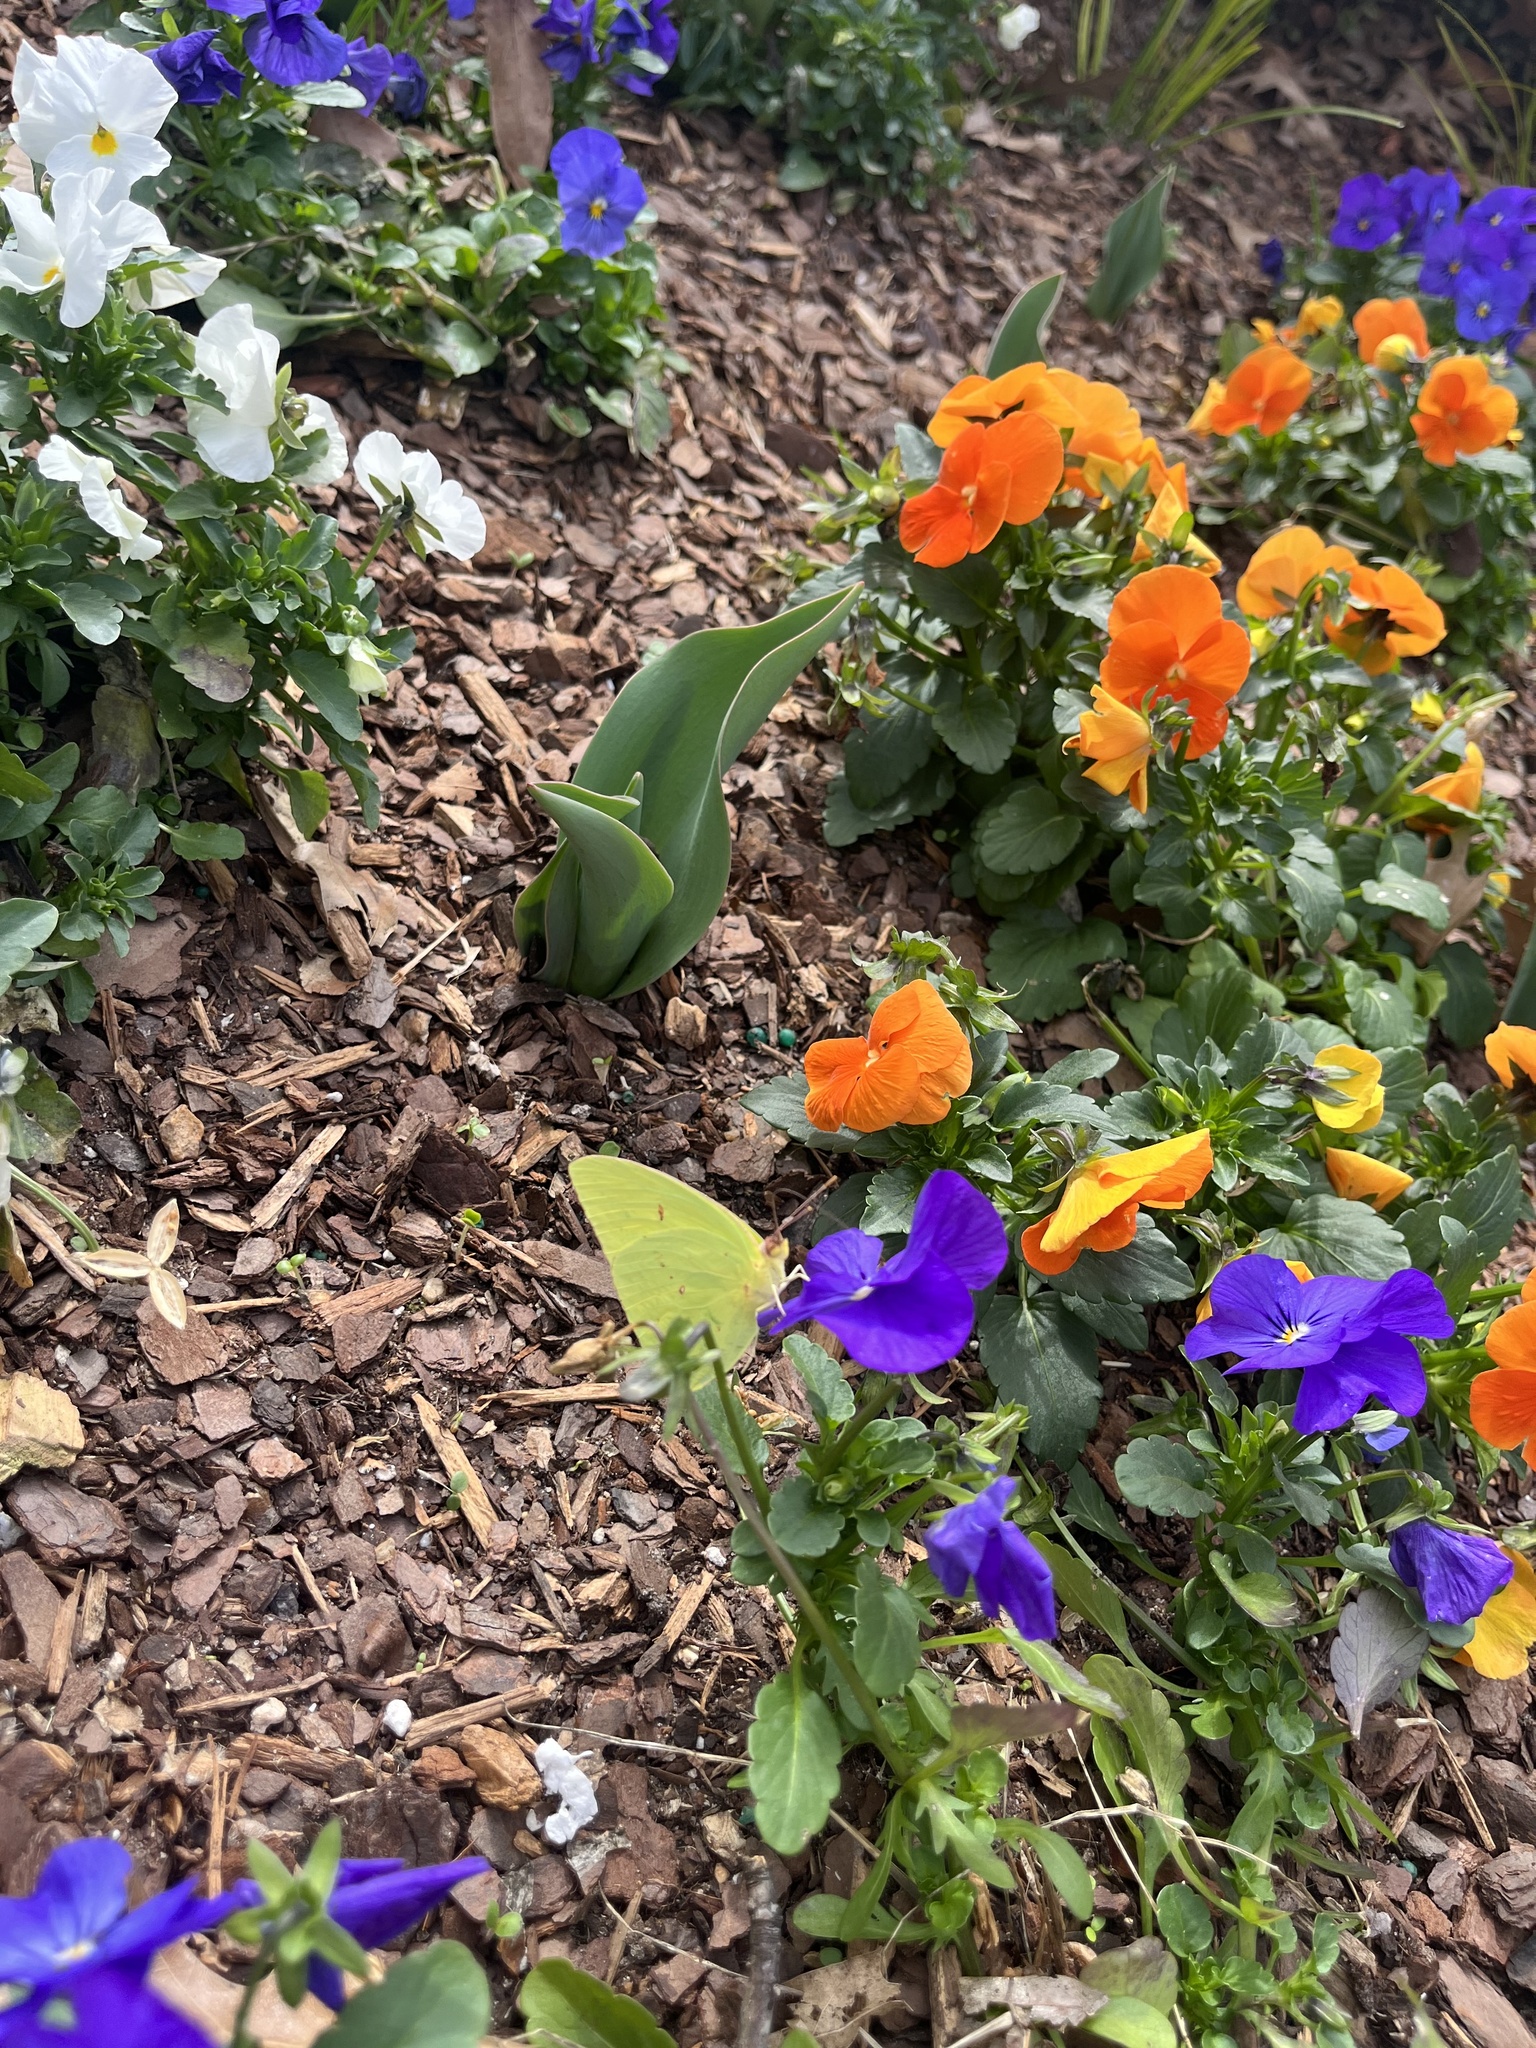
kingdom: Animalia
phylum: Arthropoda
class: Insecta
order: Lepidoptera
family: Pieridae
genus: Phoebis
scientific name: Phoebis sennae
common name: Cloudless sulphur
